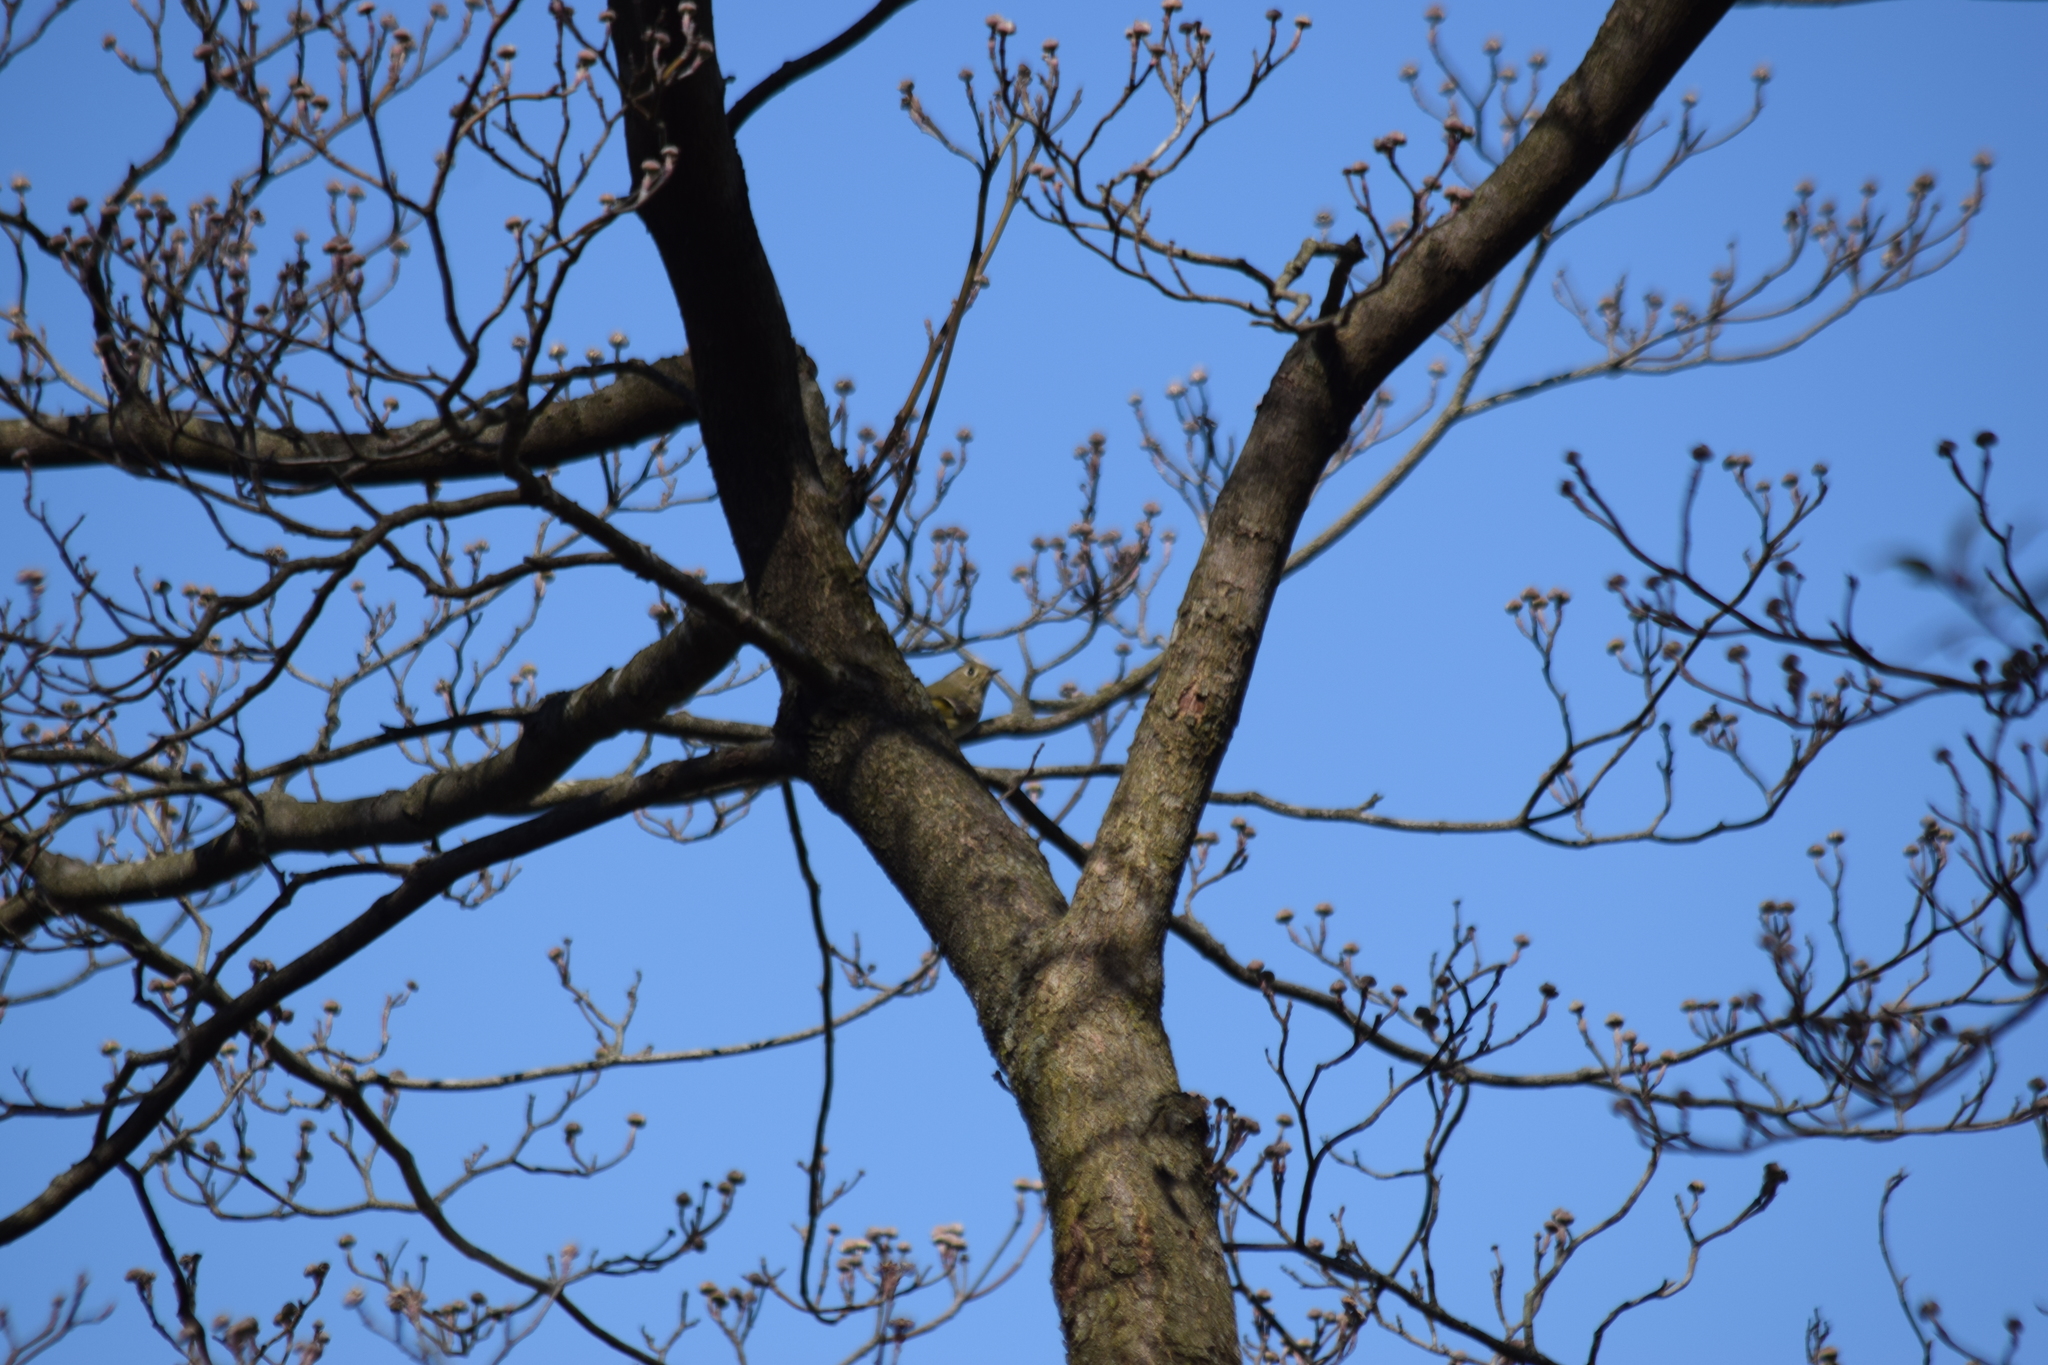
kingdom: Animalia
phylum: Chordata
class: Aves
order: Passeriformes
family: Regulidae
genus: Regulus
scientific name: Regulus calendula
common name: Ruby-crowned kinglet
